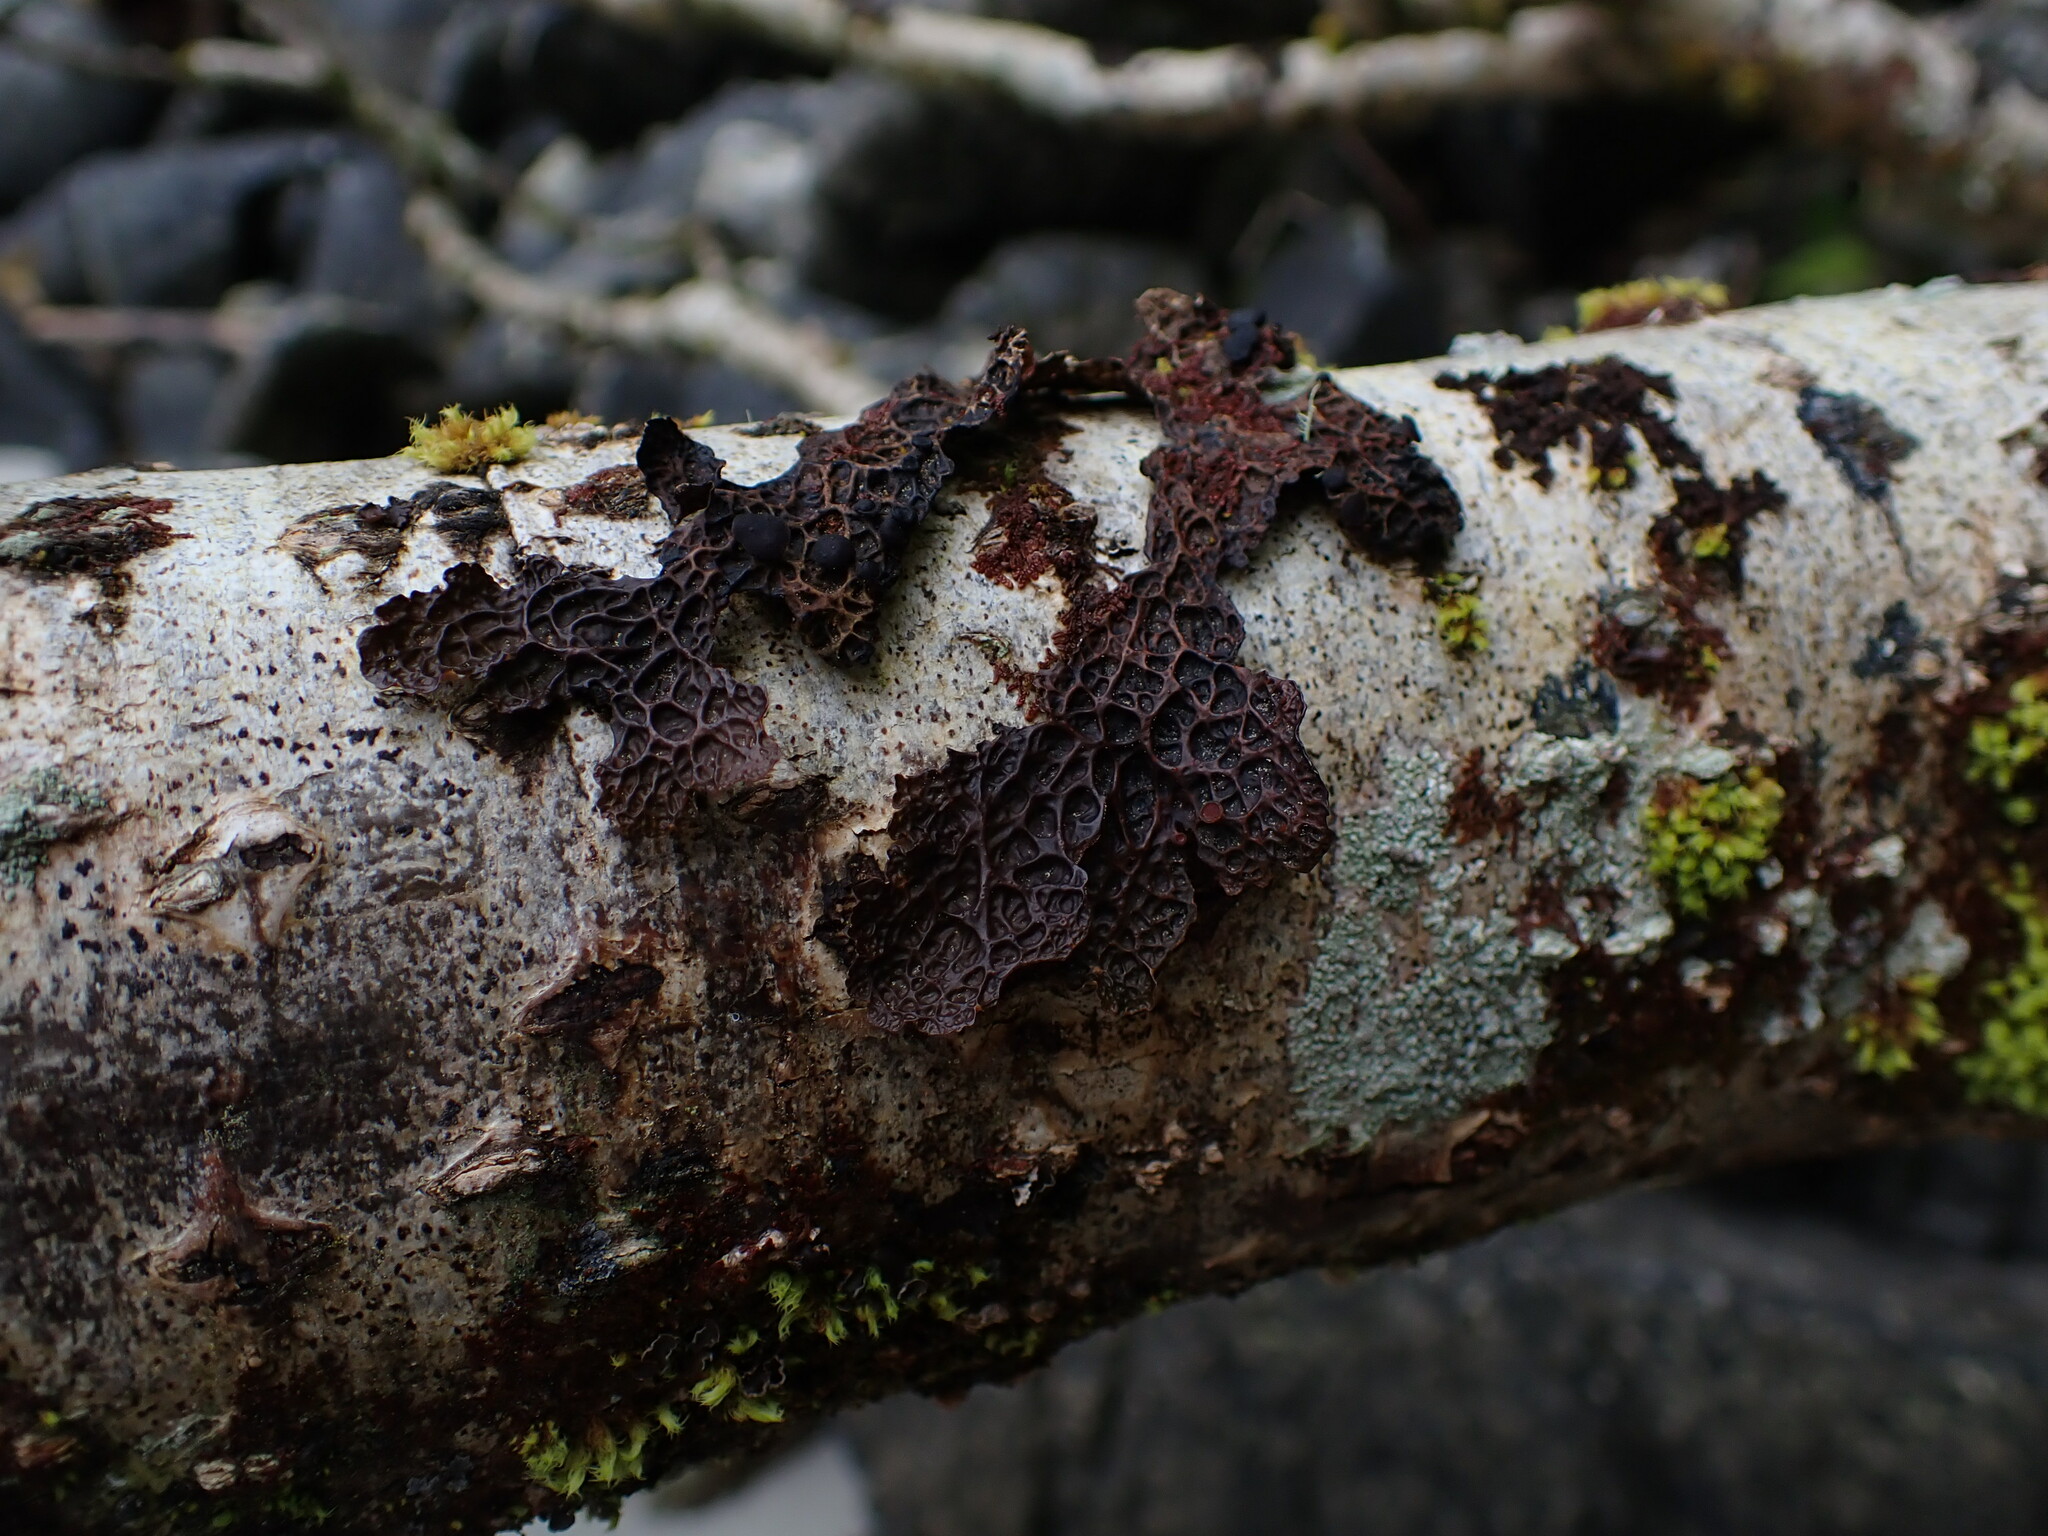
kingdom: Fungi
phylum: Ascomycota
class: Lecanoromycetes
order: Peltigerales
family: Lobariaceae
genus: Lobaria
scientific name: Lobaria anthraspis
